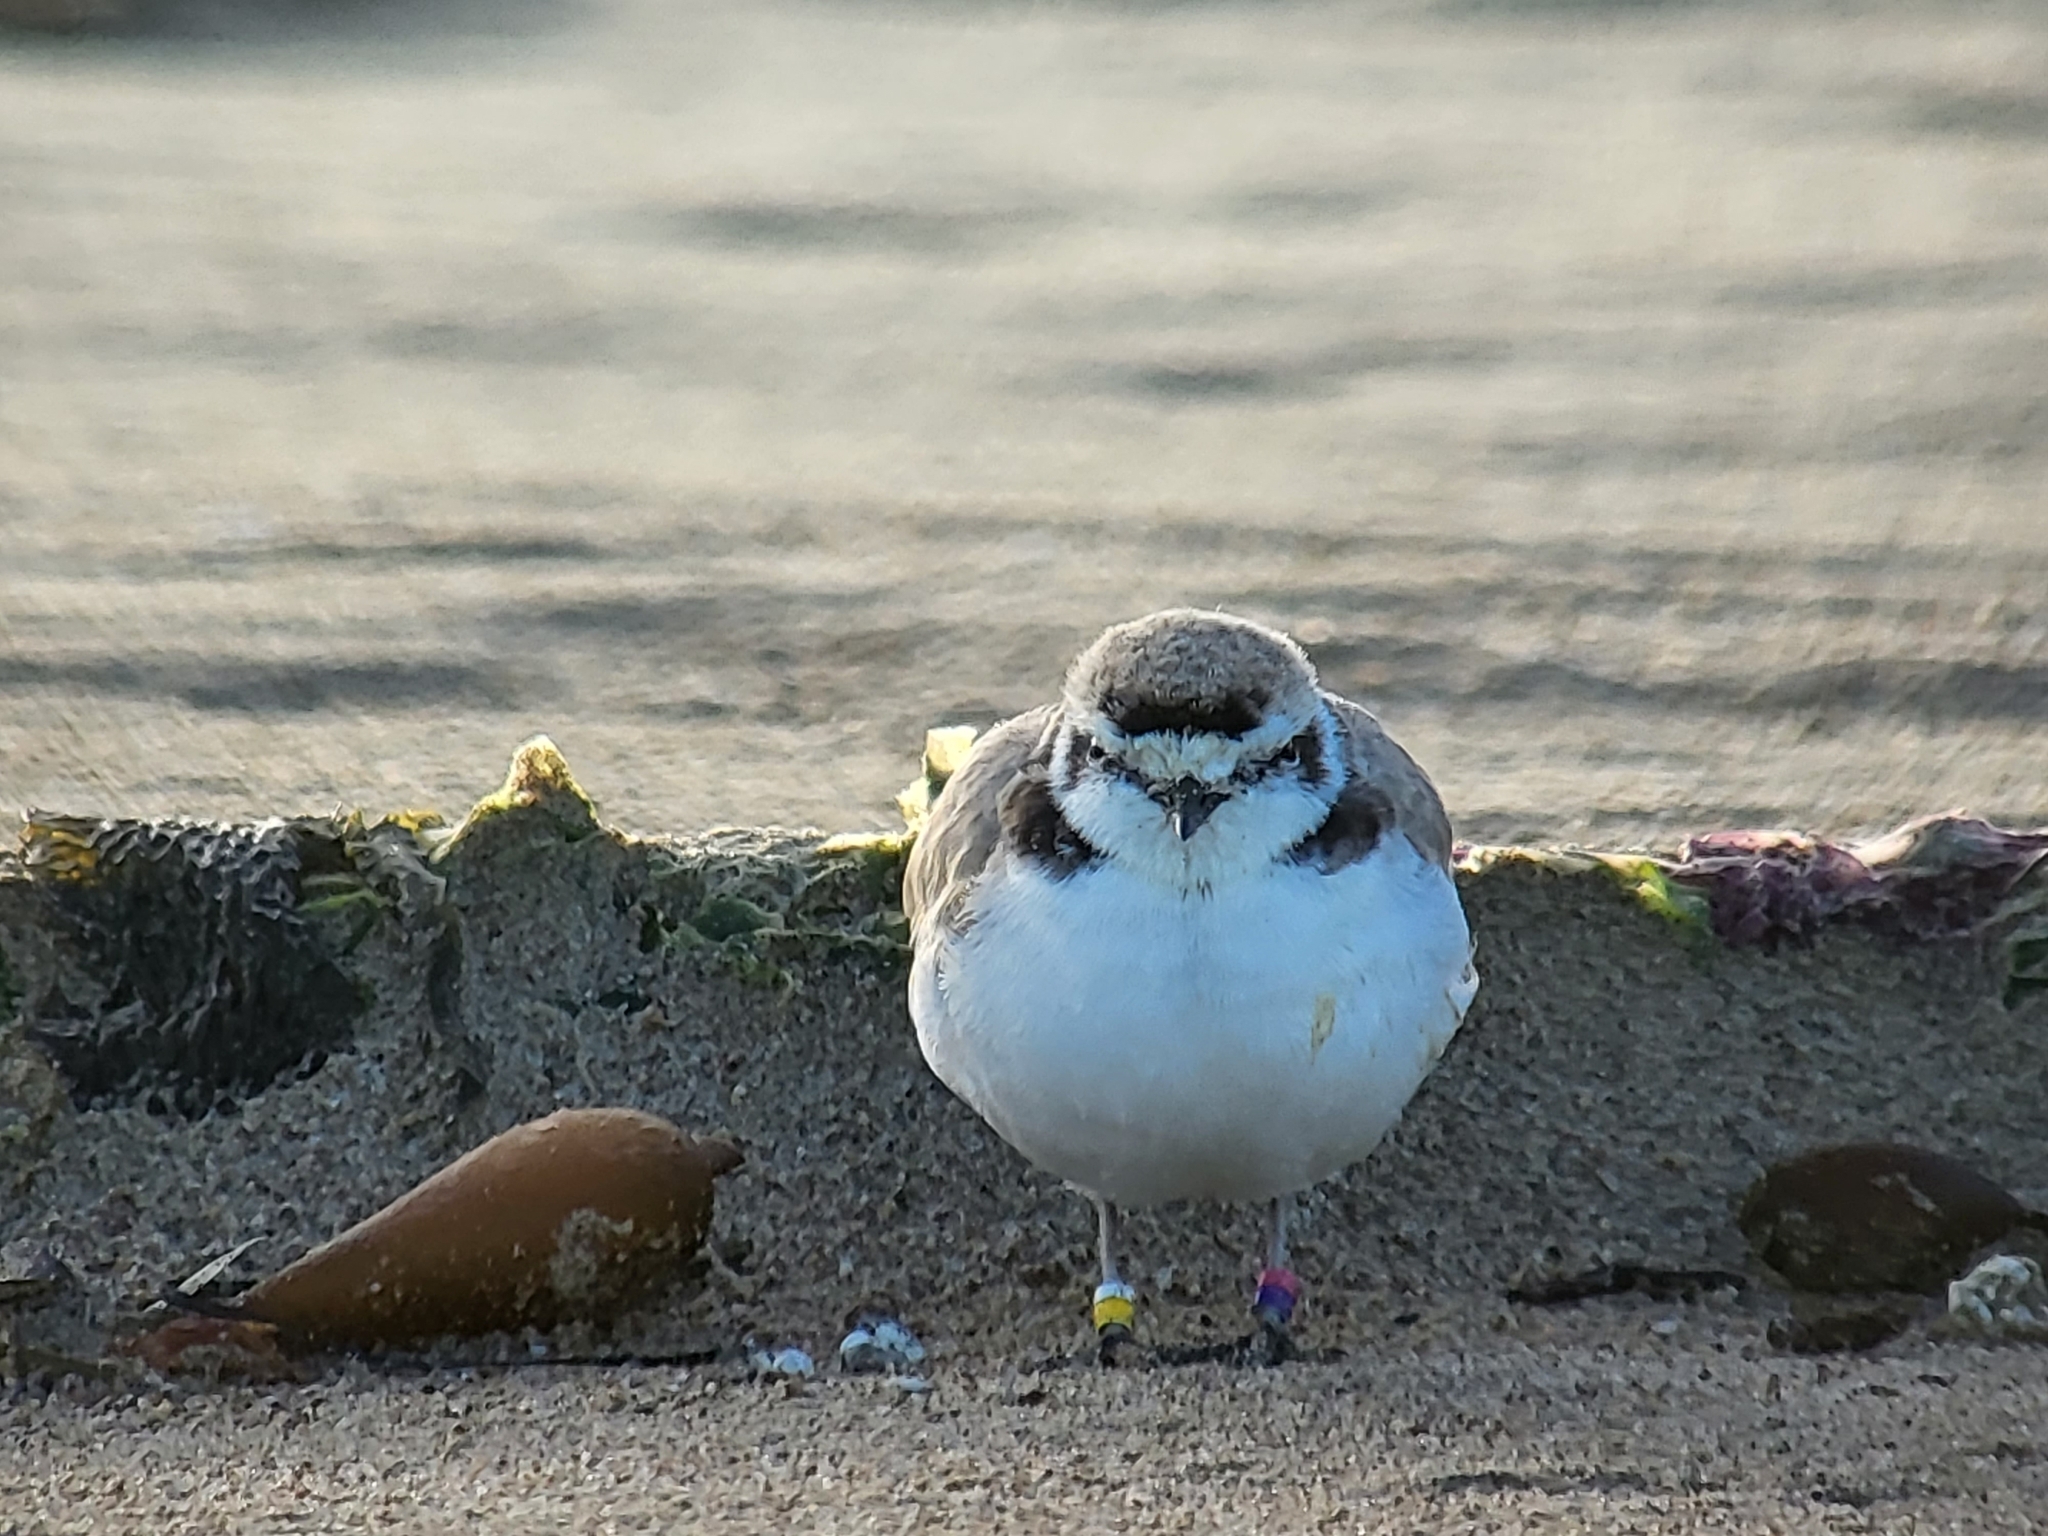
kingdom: Animalia
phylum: Chordata
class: Aves
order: Charadriiformes
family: Charadriidae
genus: Anarhynchus
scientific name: Anarhynchus
